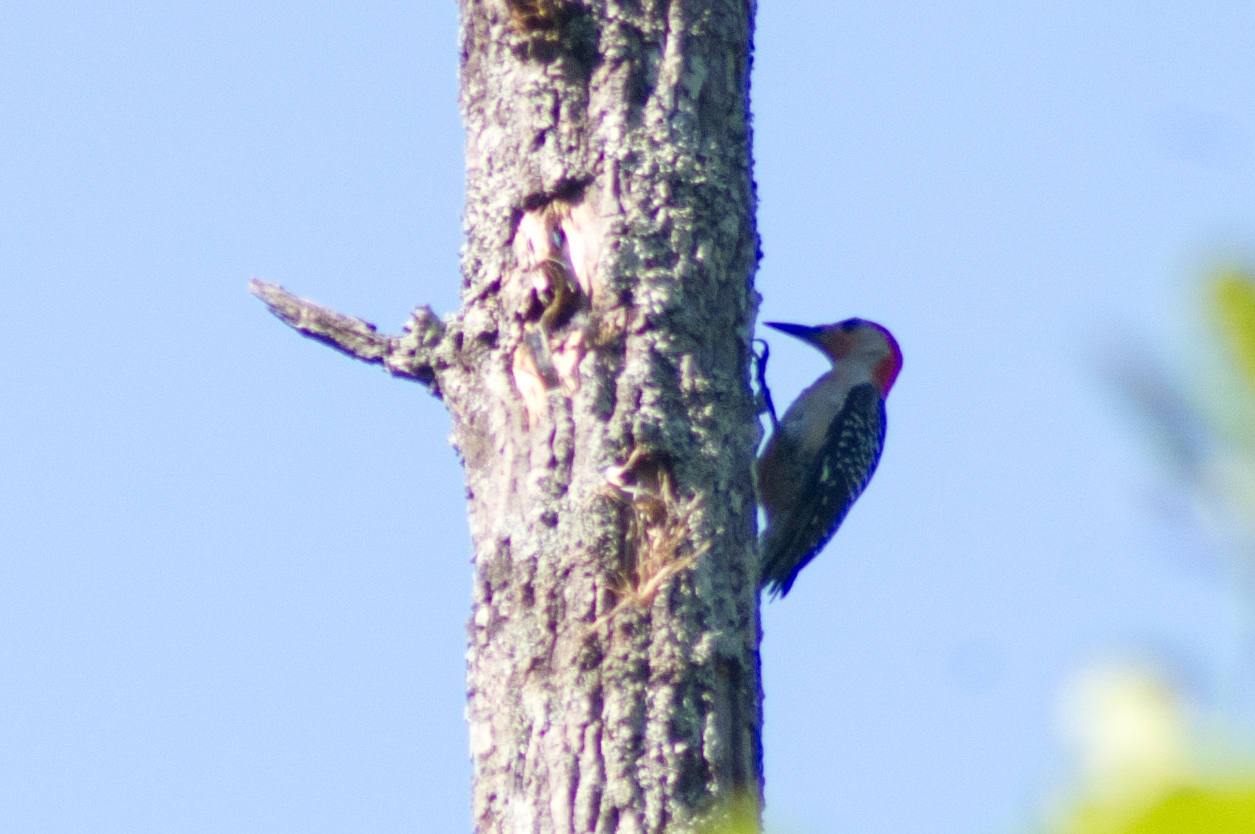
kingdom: Animalia
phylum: Chordata
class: Aves
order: Piciformes
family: Picidae
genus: Melanerpes
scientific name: Melanerpes carolinus
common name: Red-bellied woodpecker
